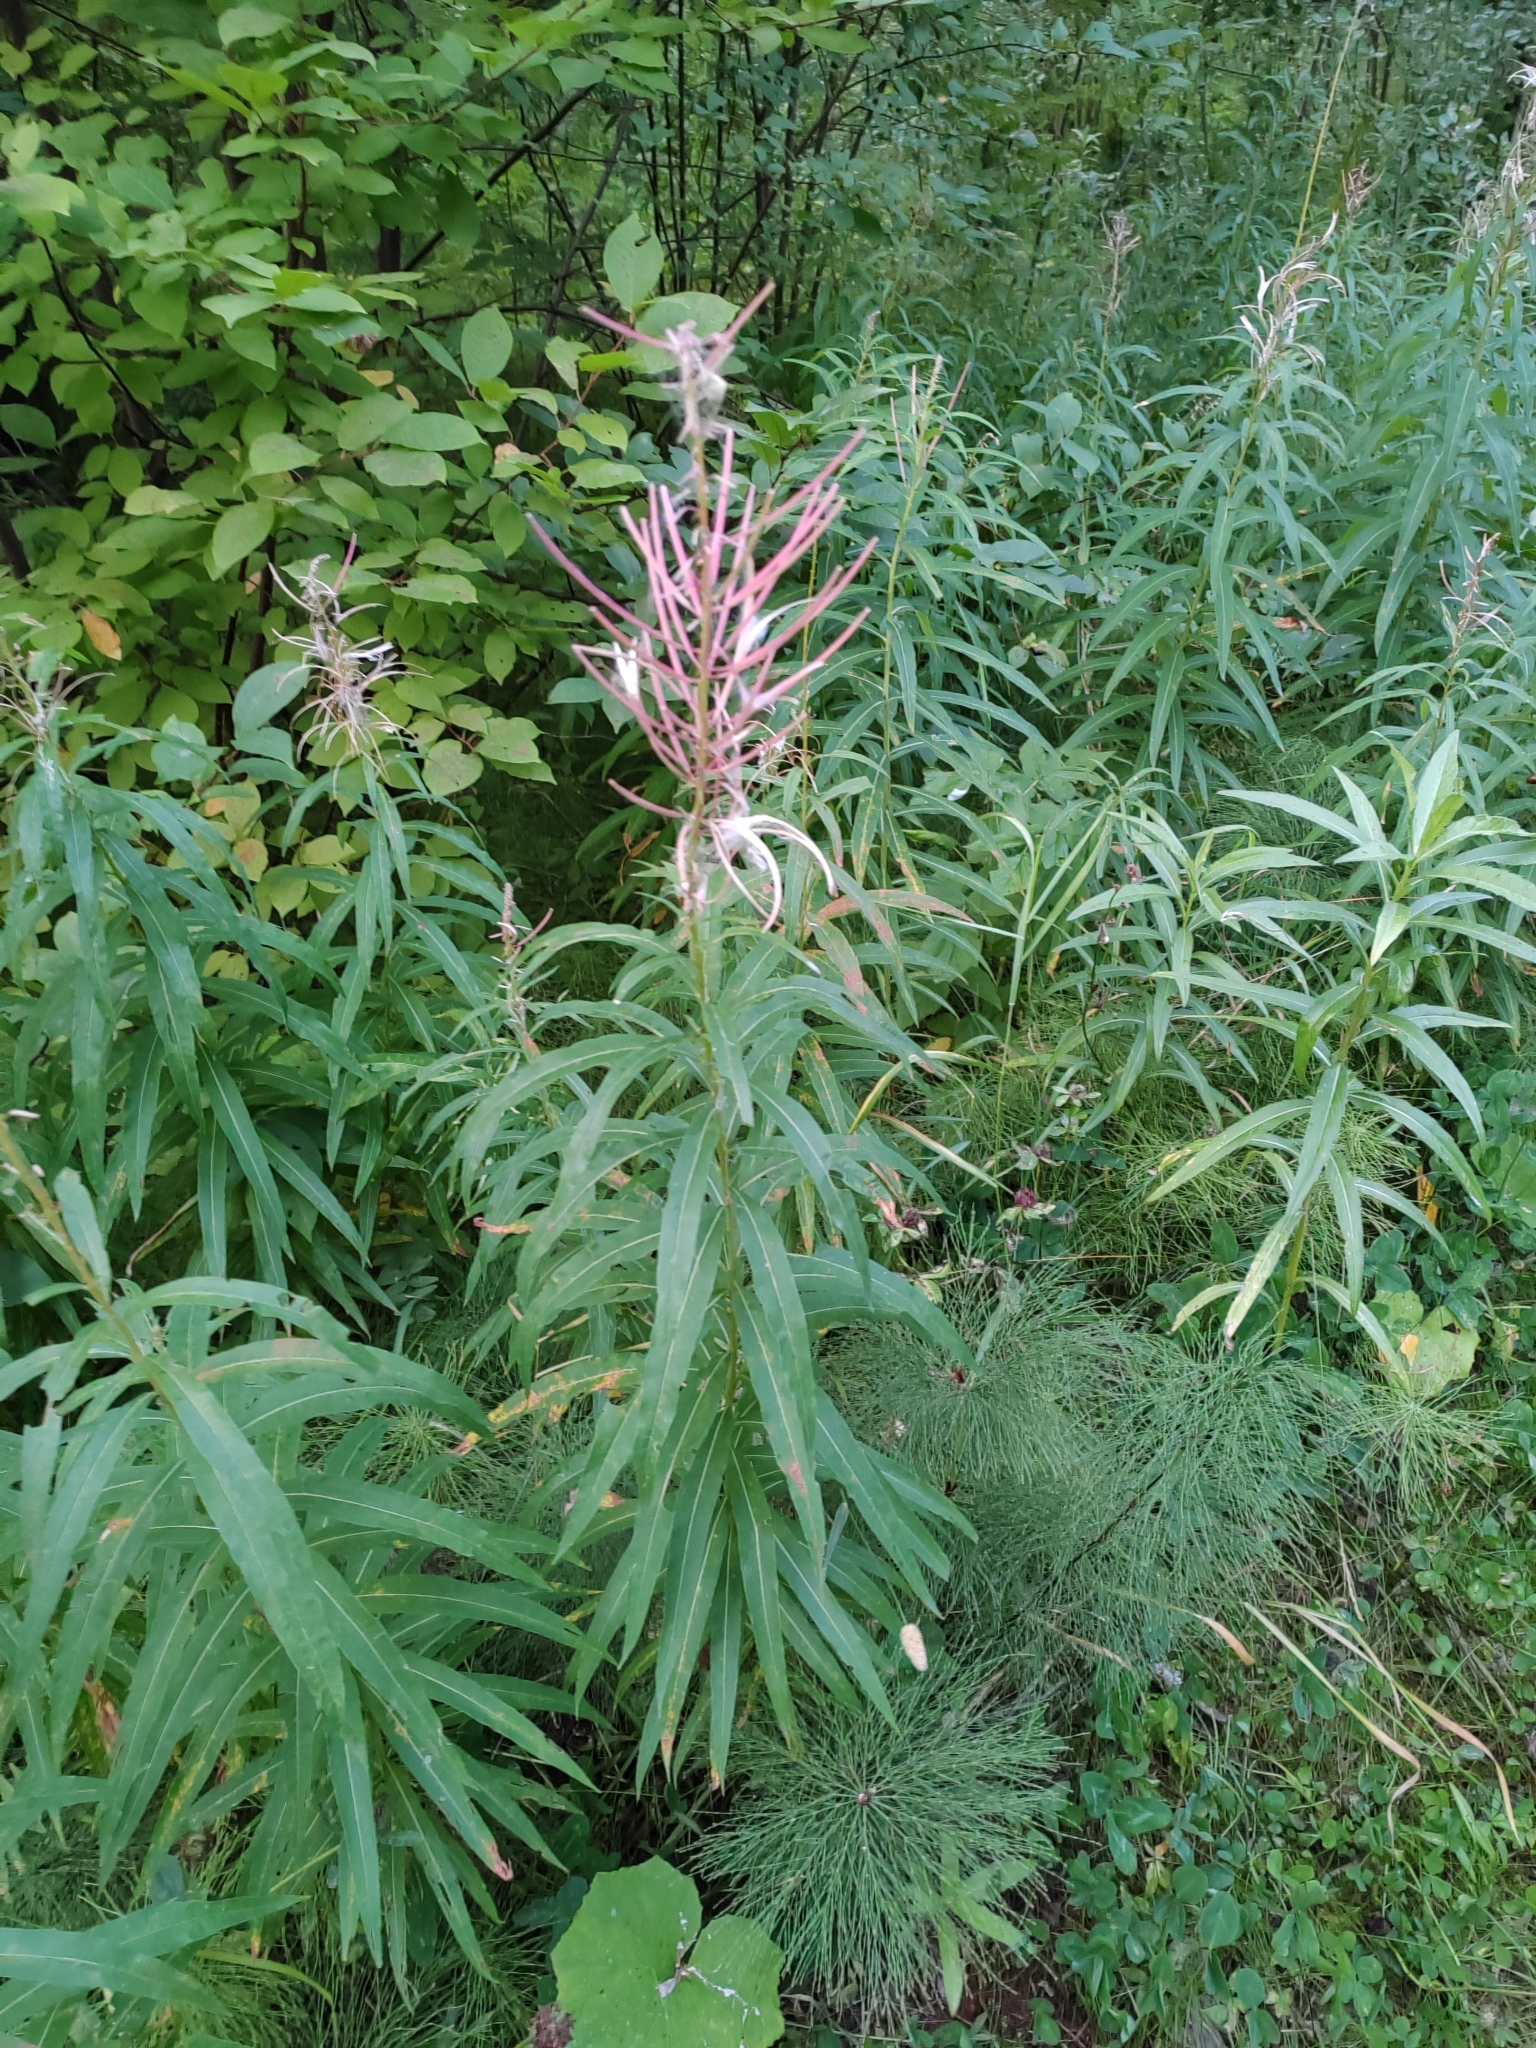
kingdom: Plantae
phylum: Tracheophyta
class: Magnoliopsida
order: Myrtales
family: Onagraceae
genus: Chamaenerion
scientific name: Chamaenerion angustifolium
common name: Fireweed
